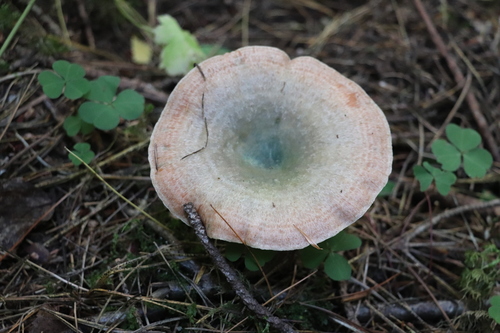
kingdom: Fungi
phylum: Basidiomycota
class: Agaricomycetes
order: Russulales
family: Russulaceae
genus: Lactarius
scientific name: Lactarius deterrimus
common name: False saffron milkcap
